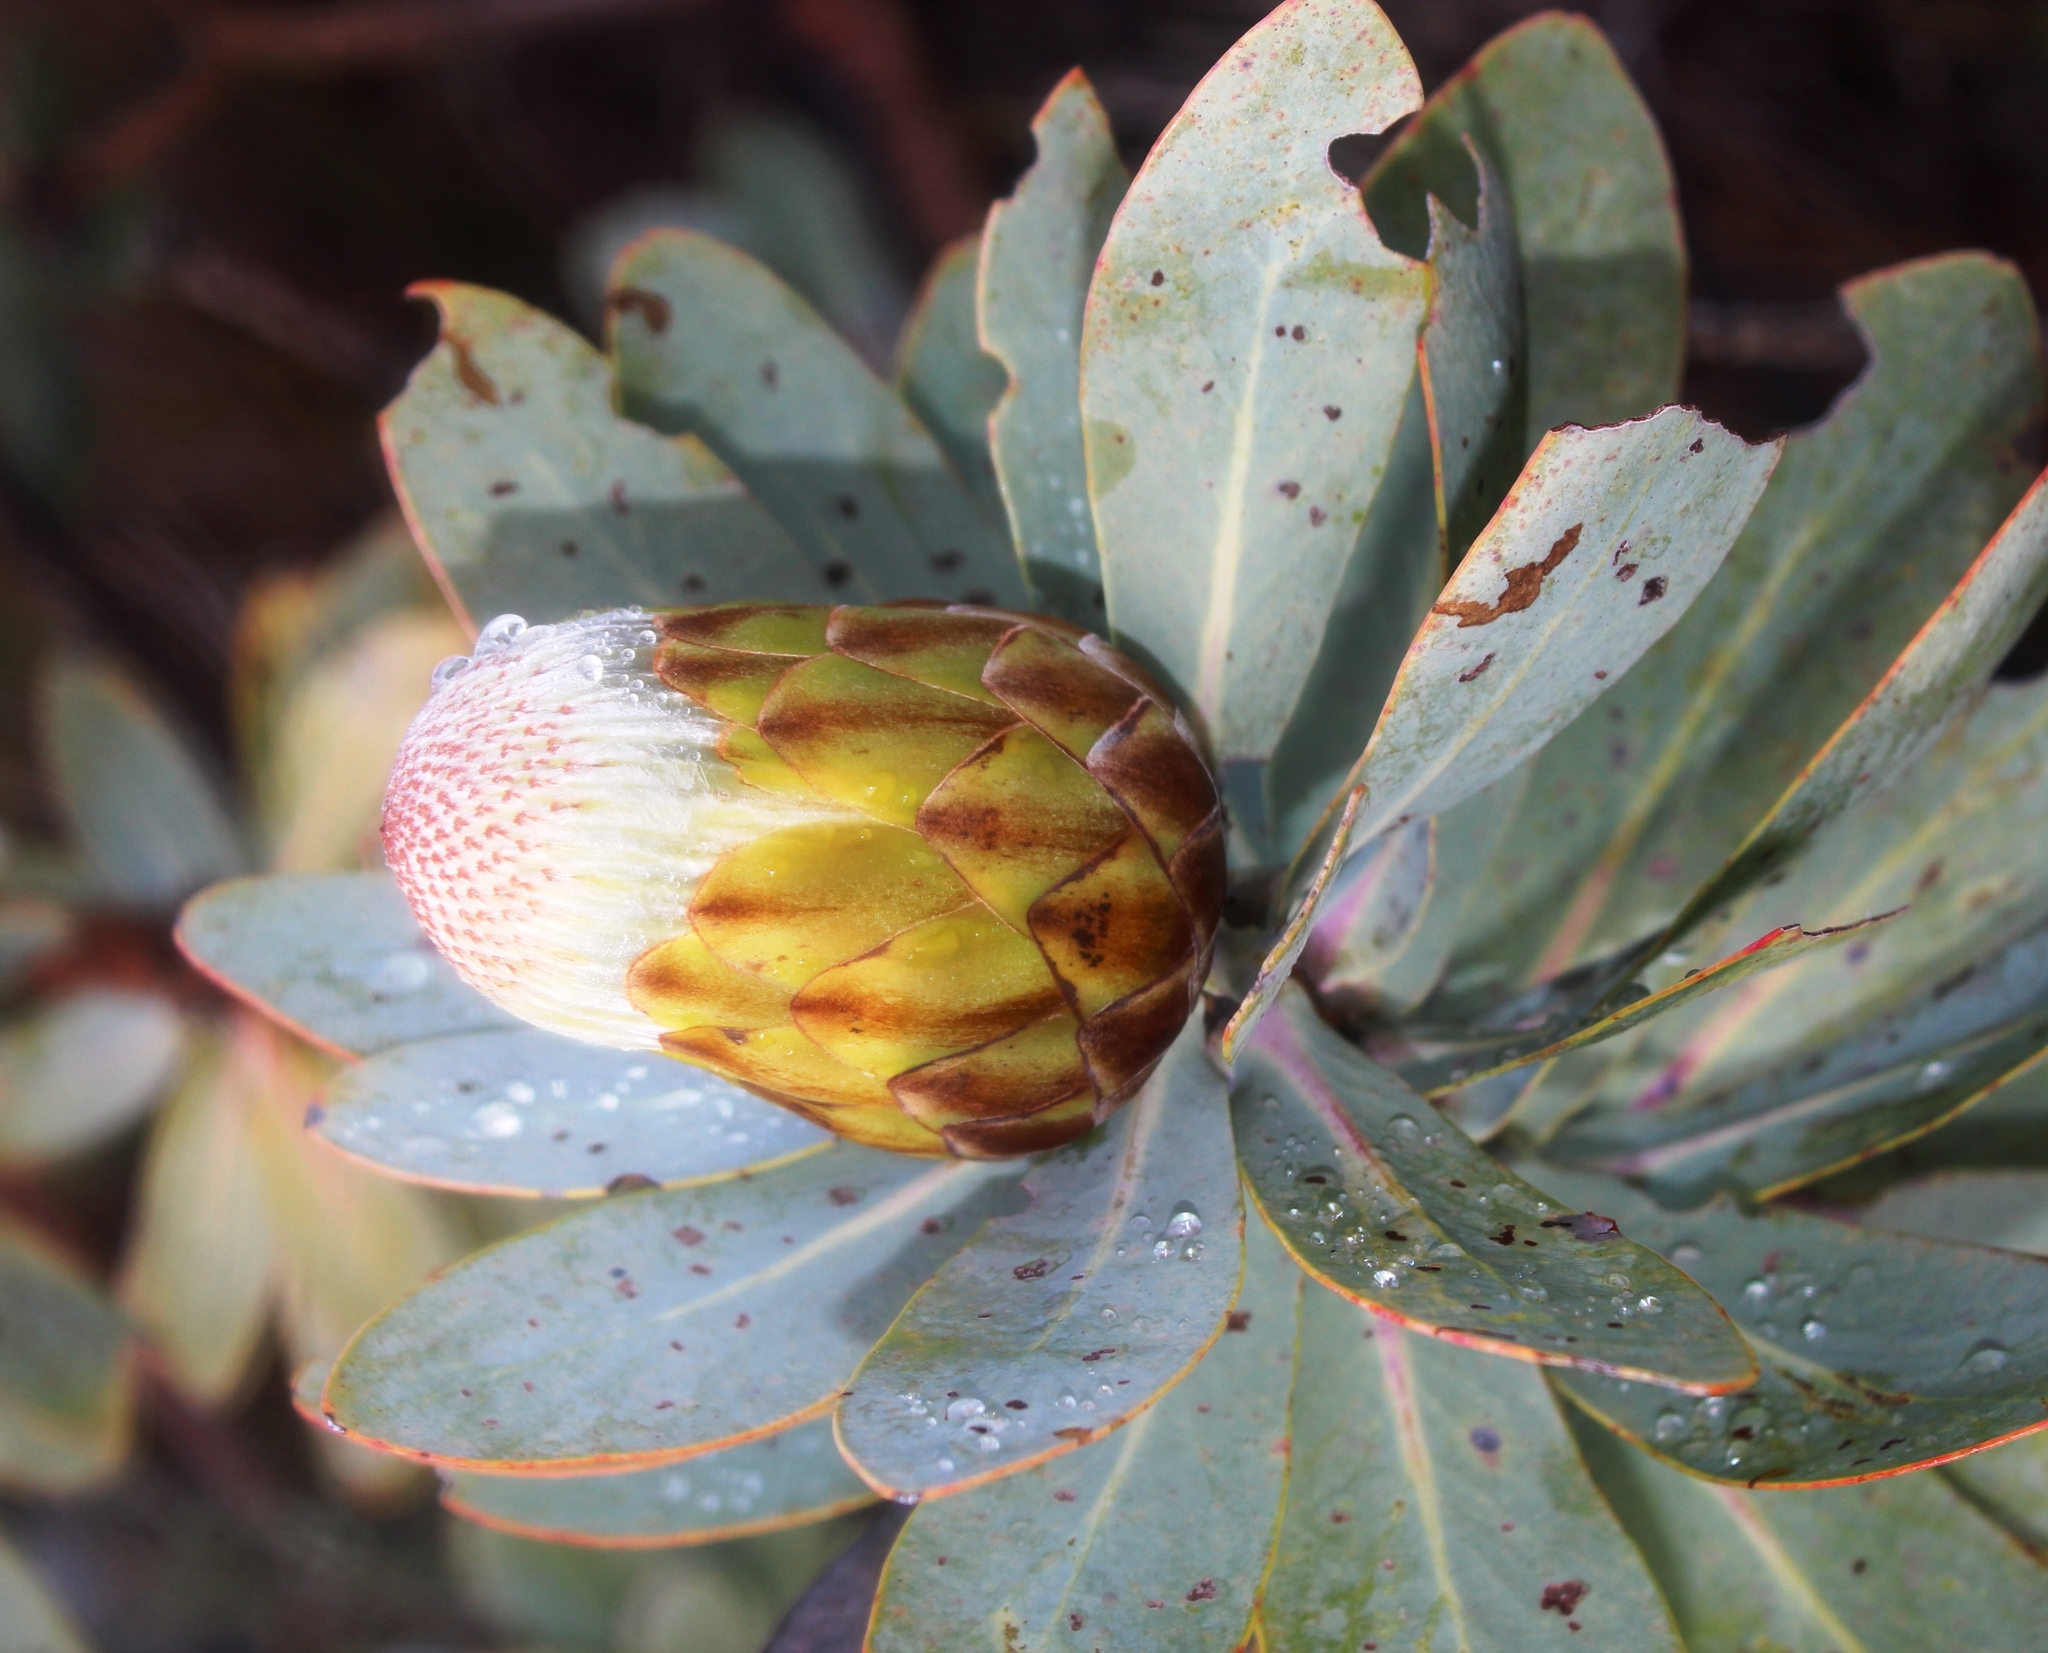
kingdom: Plantae
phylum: Tracheophyta
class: Magnoliopsida
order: Proteales
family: Proteaceae
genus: Protea
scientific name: Protea nitida
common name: Tree protea
